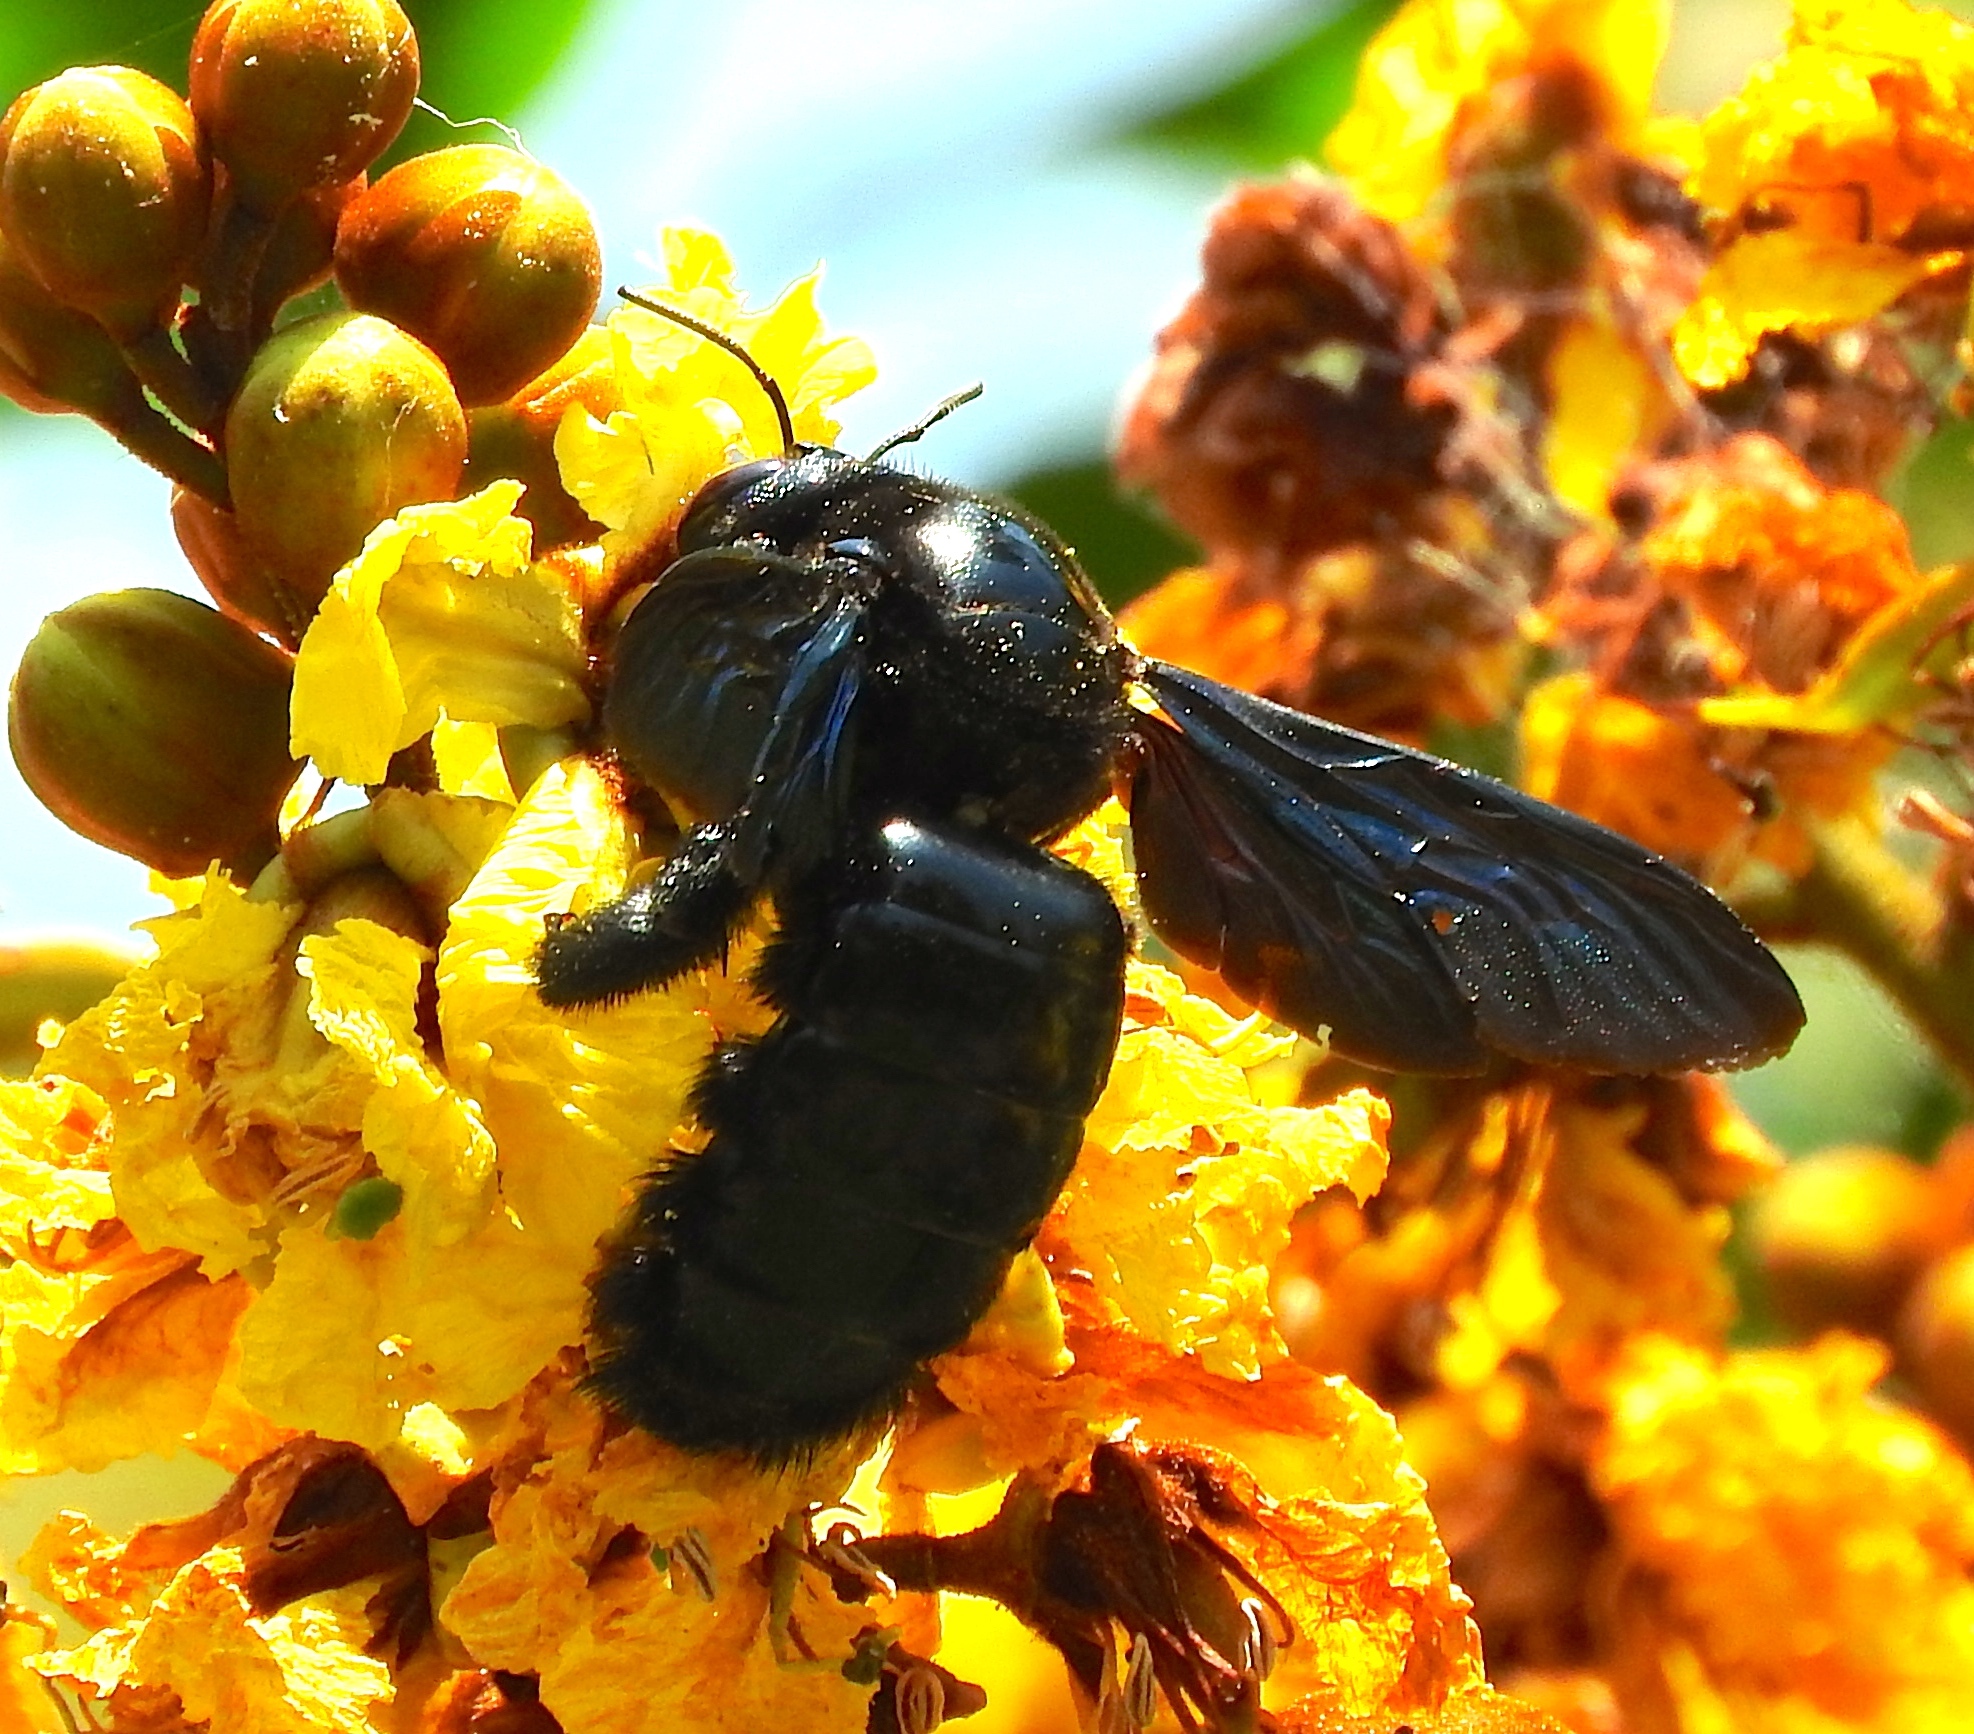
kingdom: Animalia
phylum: Arthropoda
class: Insecta
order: Hymenoptera
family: Apidae
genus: Xylocopa
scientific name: Xylocopa fimbriata
